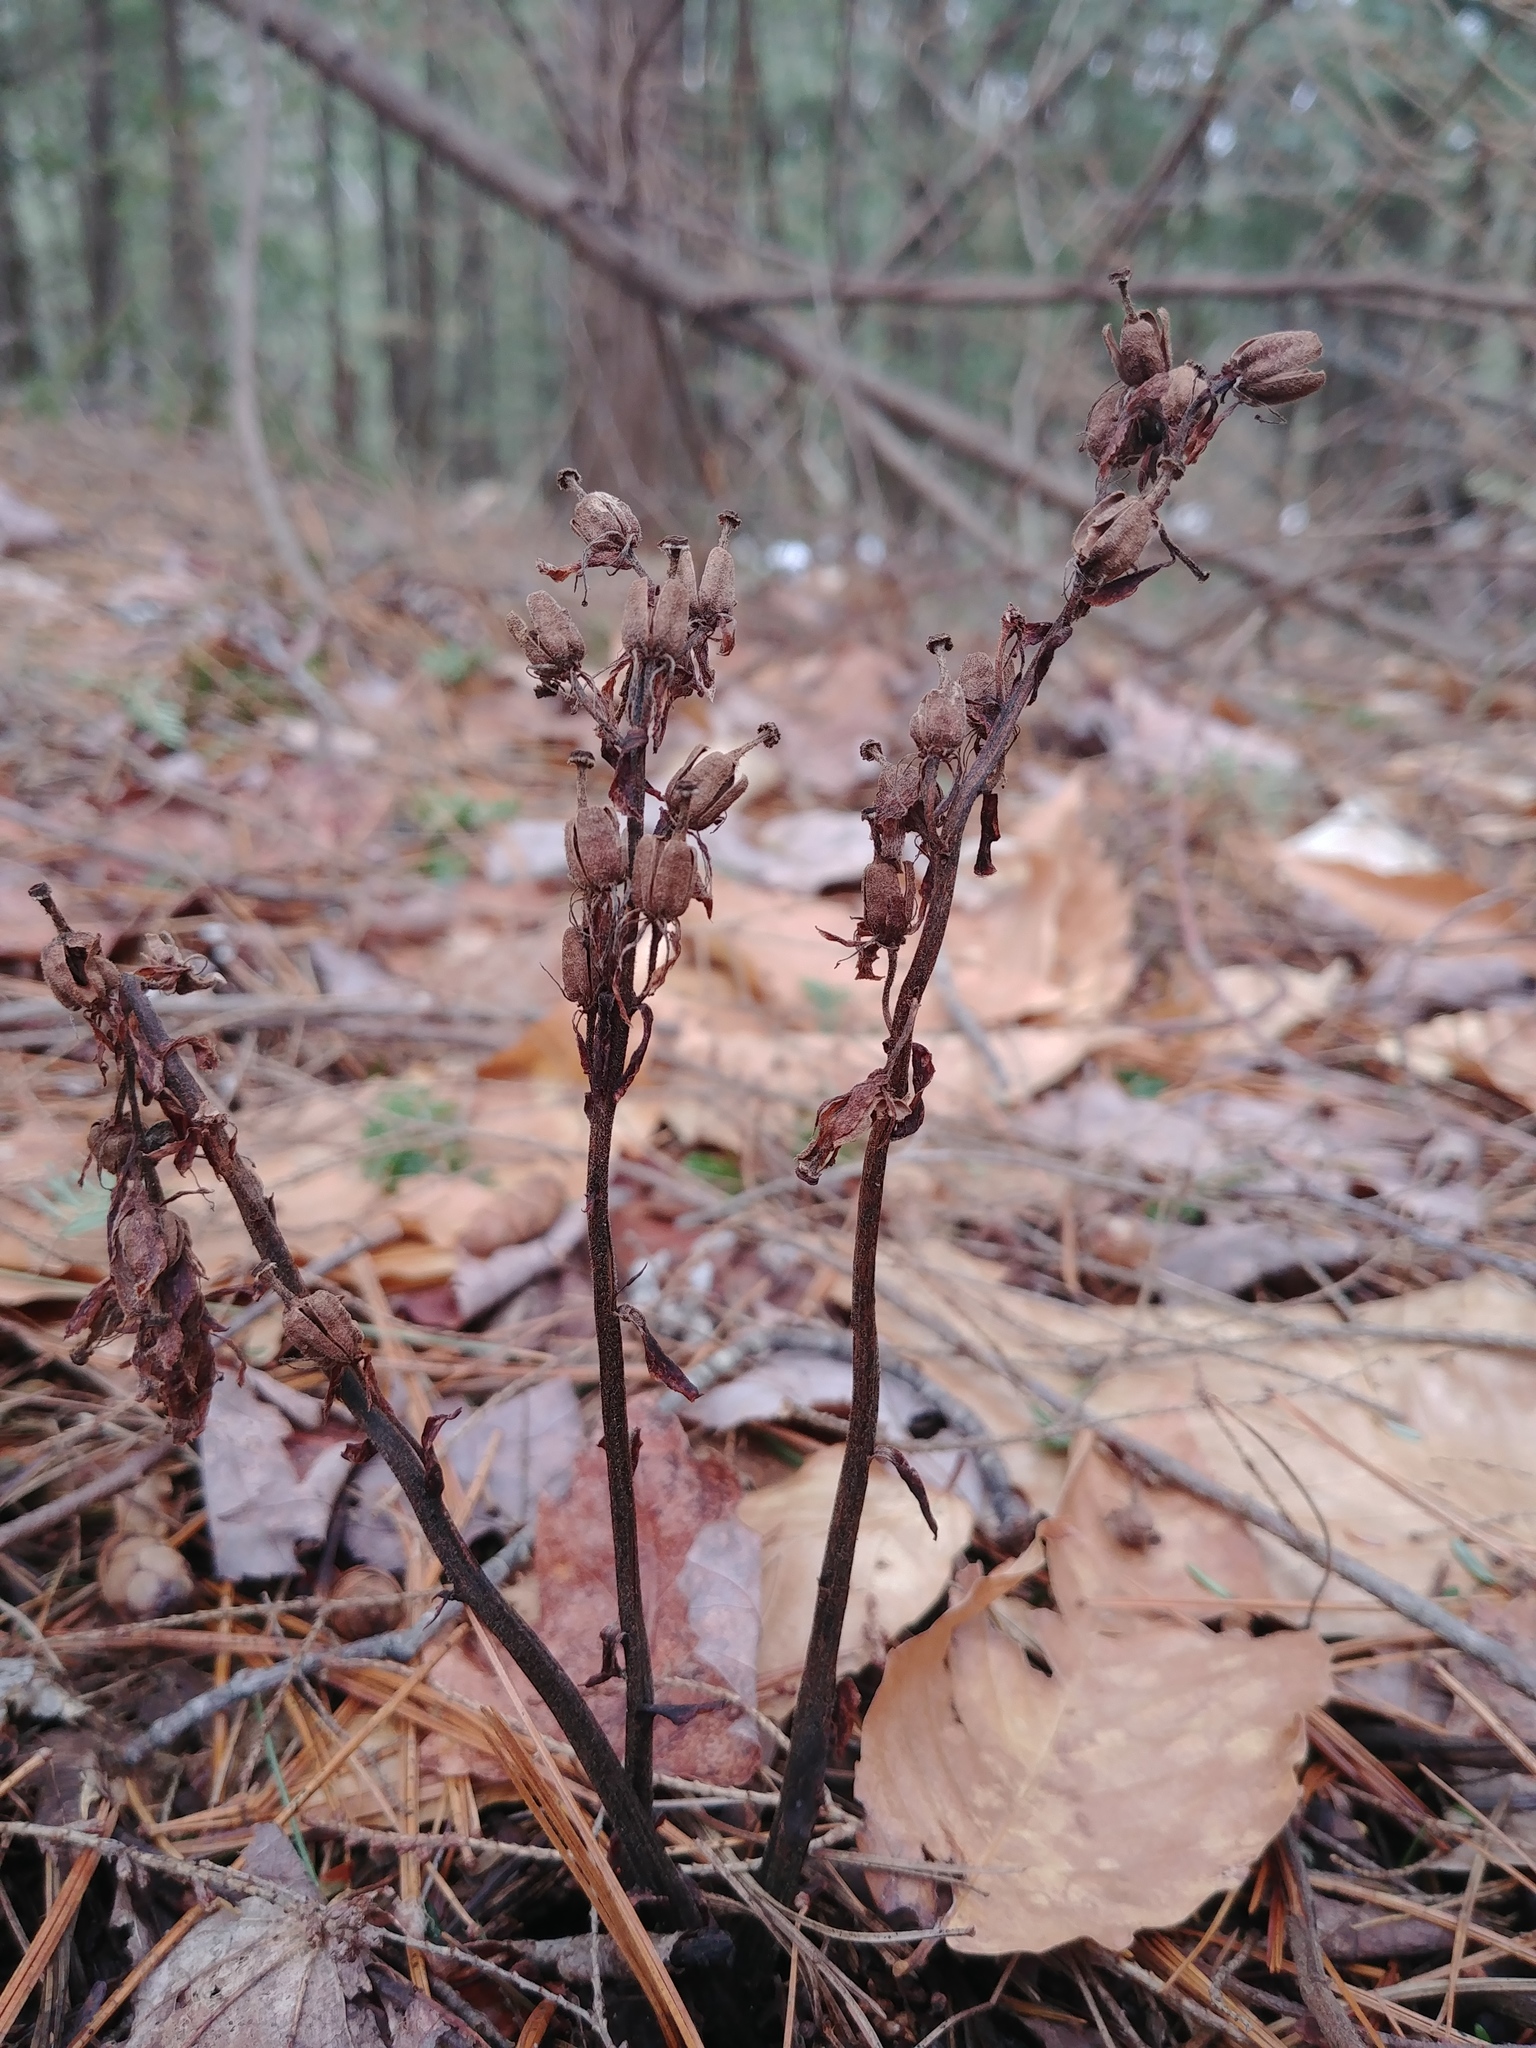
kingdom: Plantae
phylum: Tracheophyta
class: Magnoliopsida
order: Ericales
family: Ericaceae
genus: Hypopitys
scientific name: Hypopitys monotropa
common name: Yellow bird's-nest
